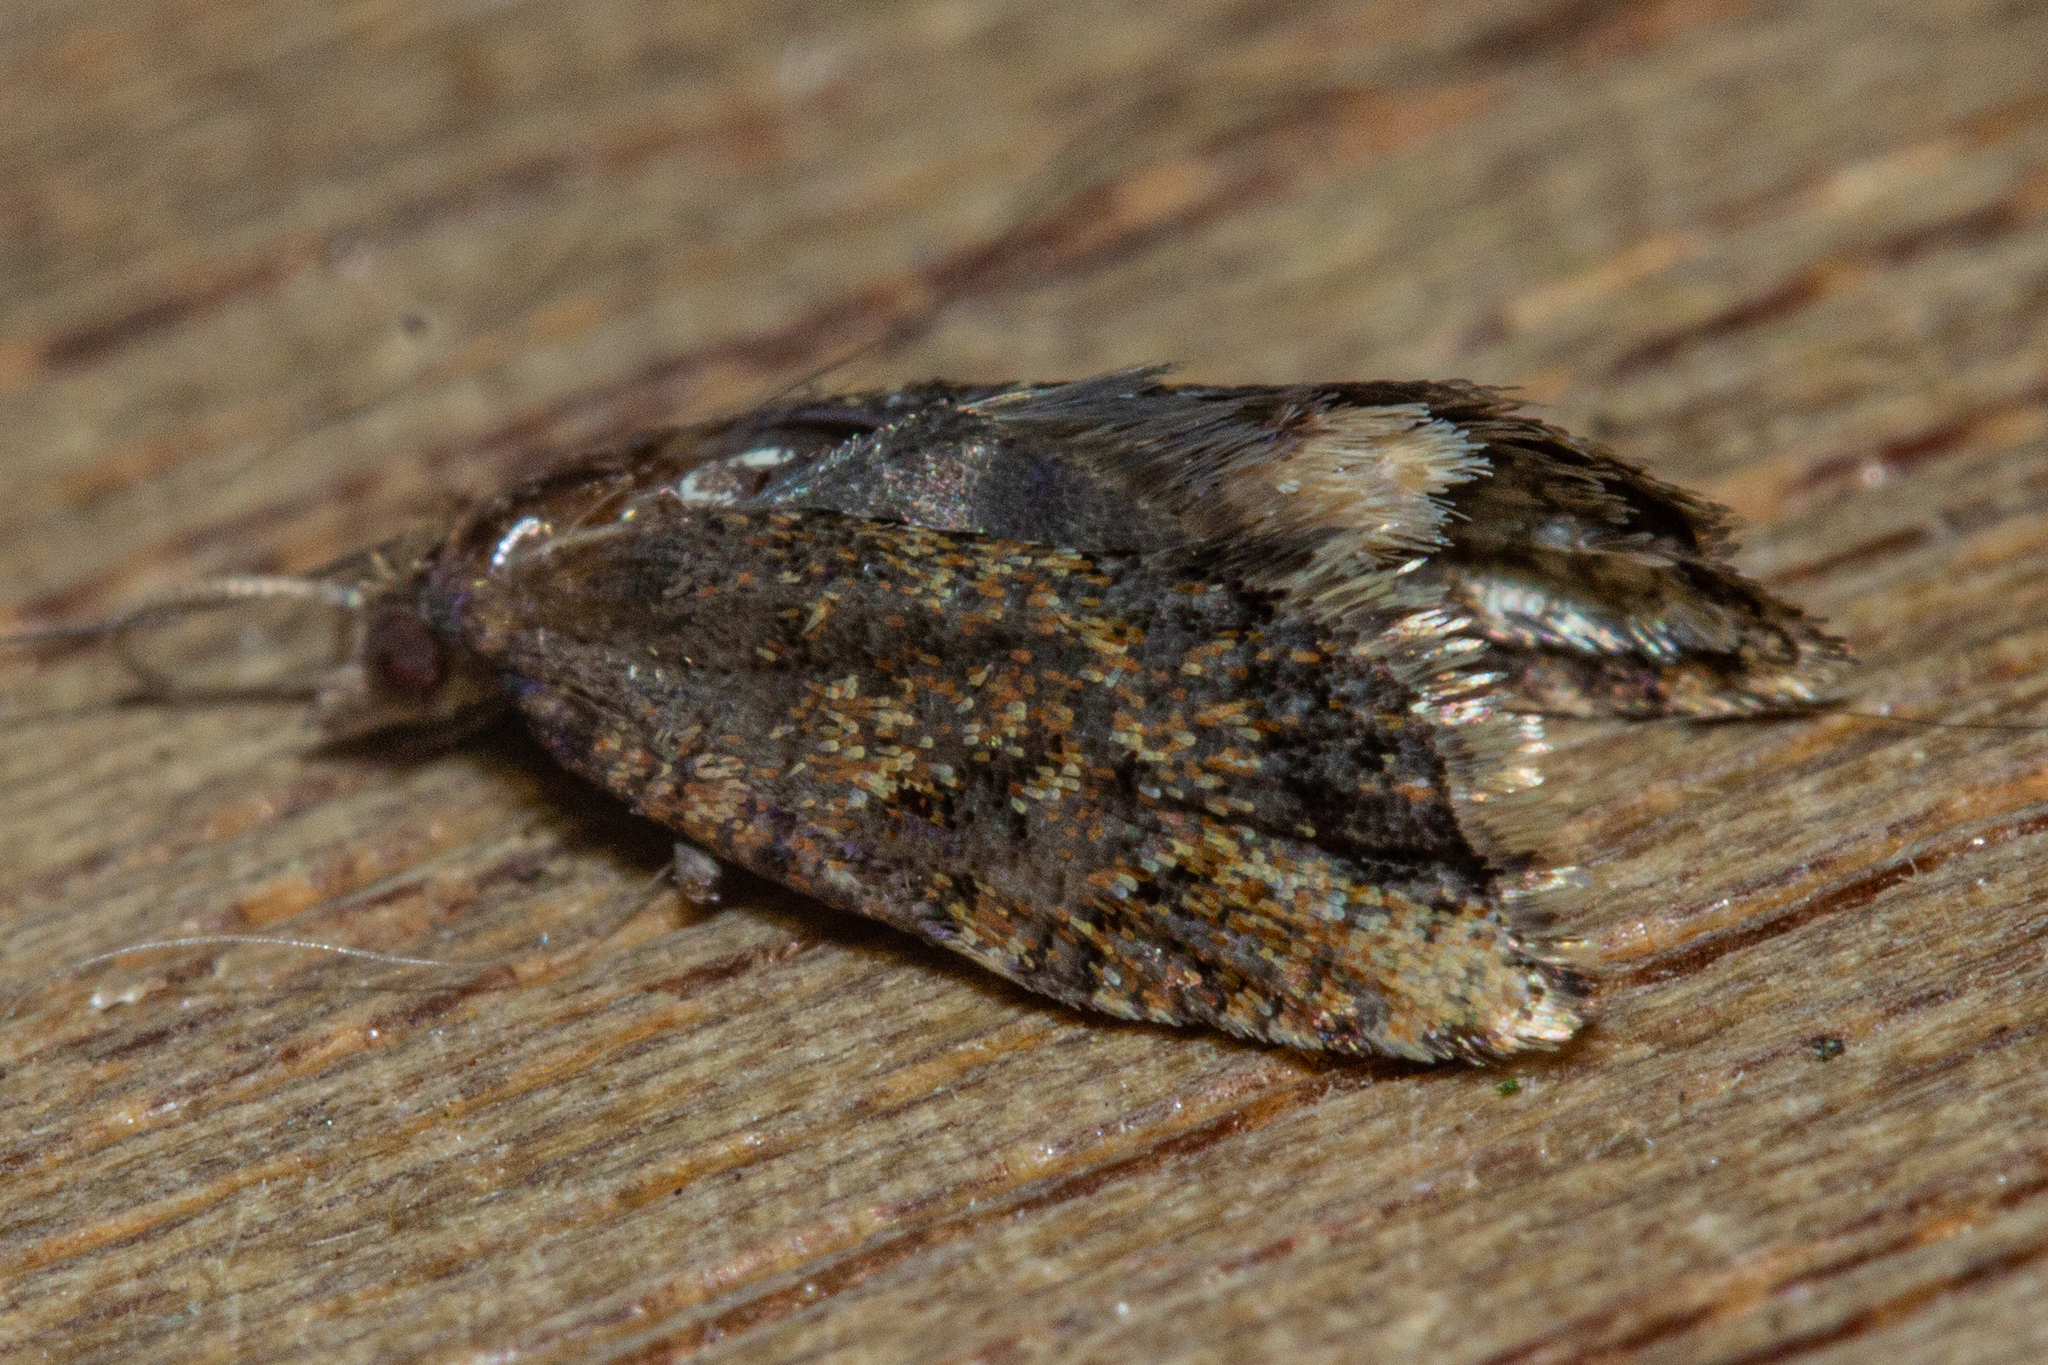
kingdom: Animalia
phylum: Arthropoda
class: Insecta
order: Lepidoptera
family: Tortricidae
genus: Capua
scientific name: Capua semiferana
